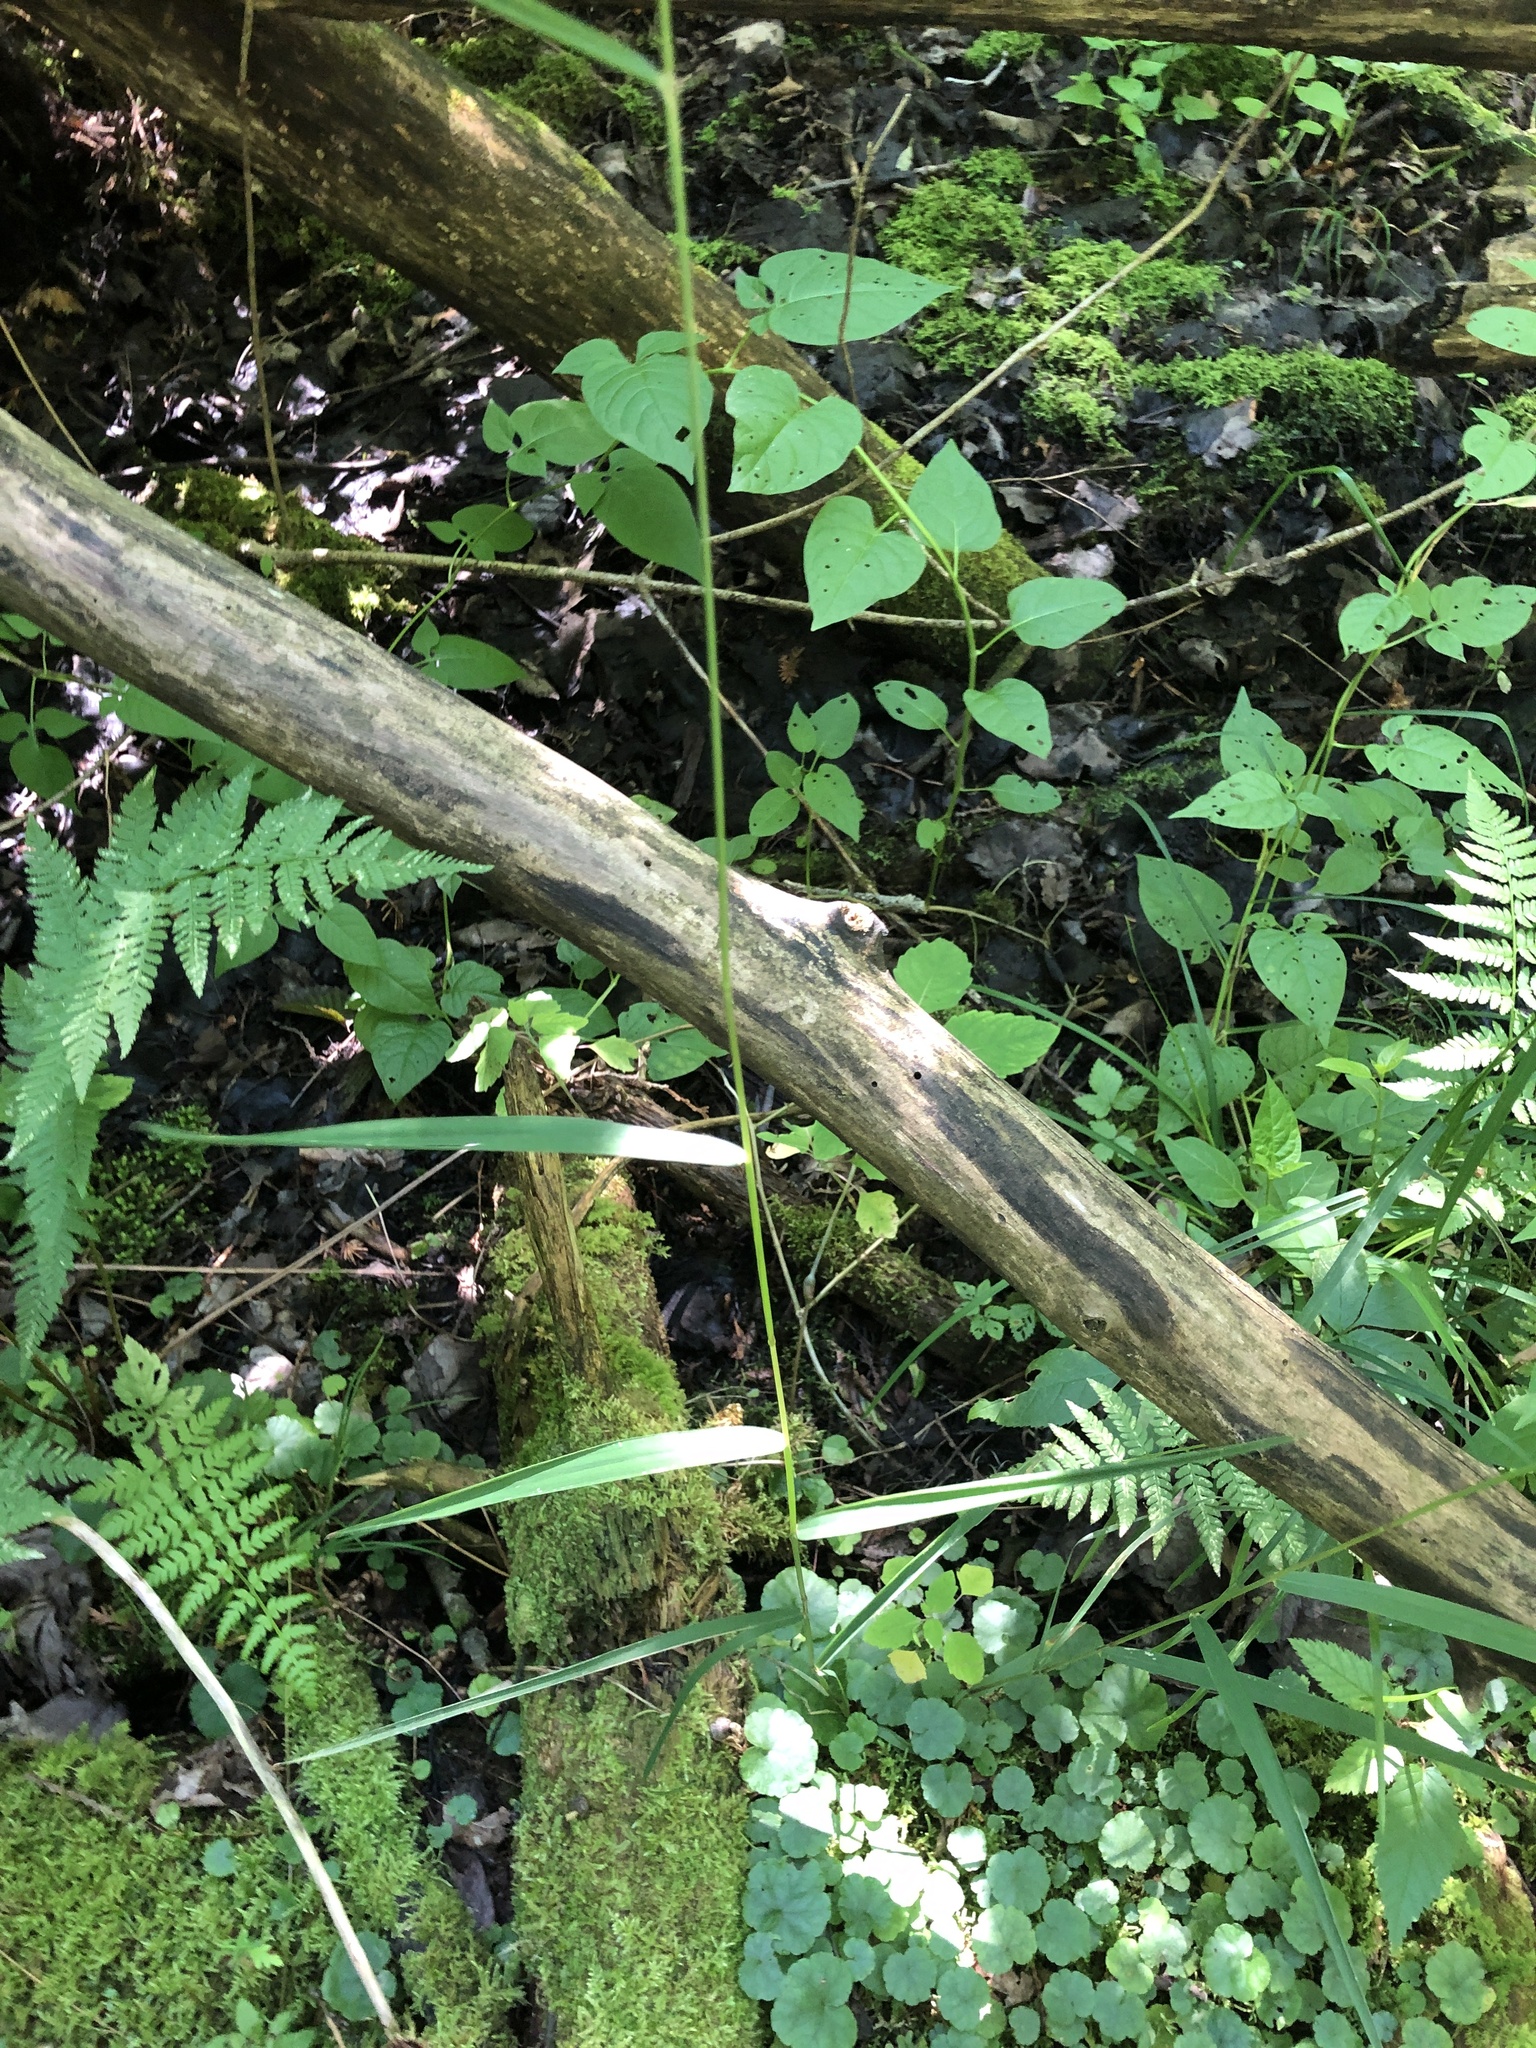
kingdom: Plantae
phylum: Tracheophyta
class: Liliopsida
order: Poales
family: Poaceae
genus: Cinna
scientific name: Cinna latifolia
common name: Drooping woodreed
